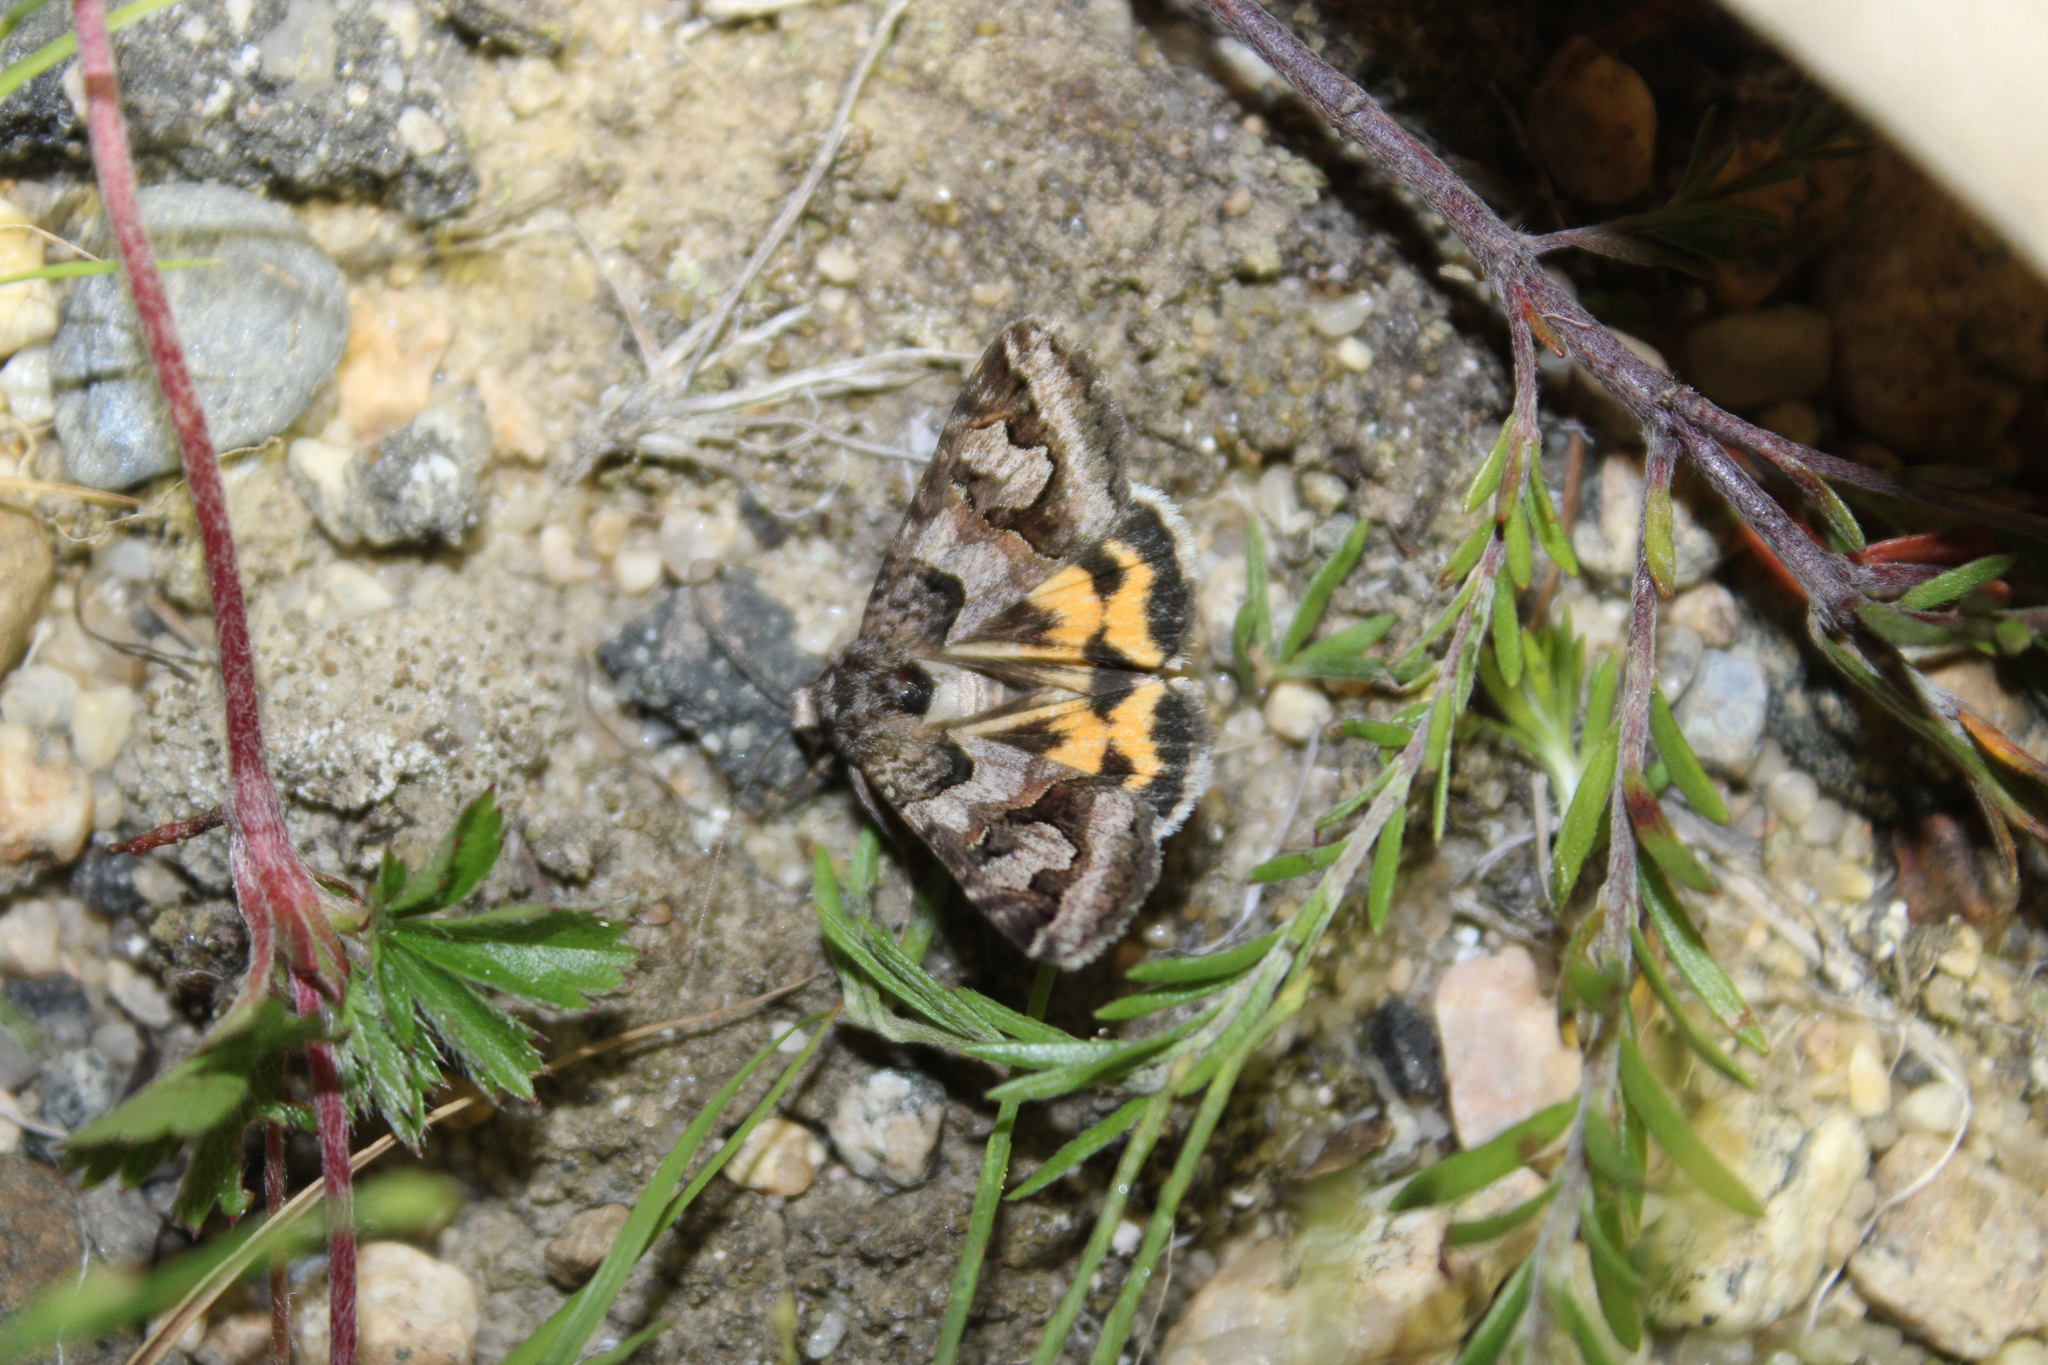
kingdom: Animalia
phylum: Arthropoda
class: Insecta
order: Lepidoptera
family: Erebidae
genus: Drasteria
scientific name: Drasteria graphica
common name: Coastal graphic
